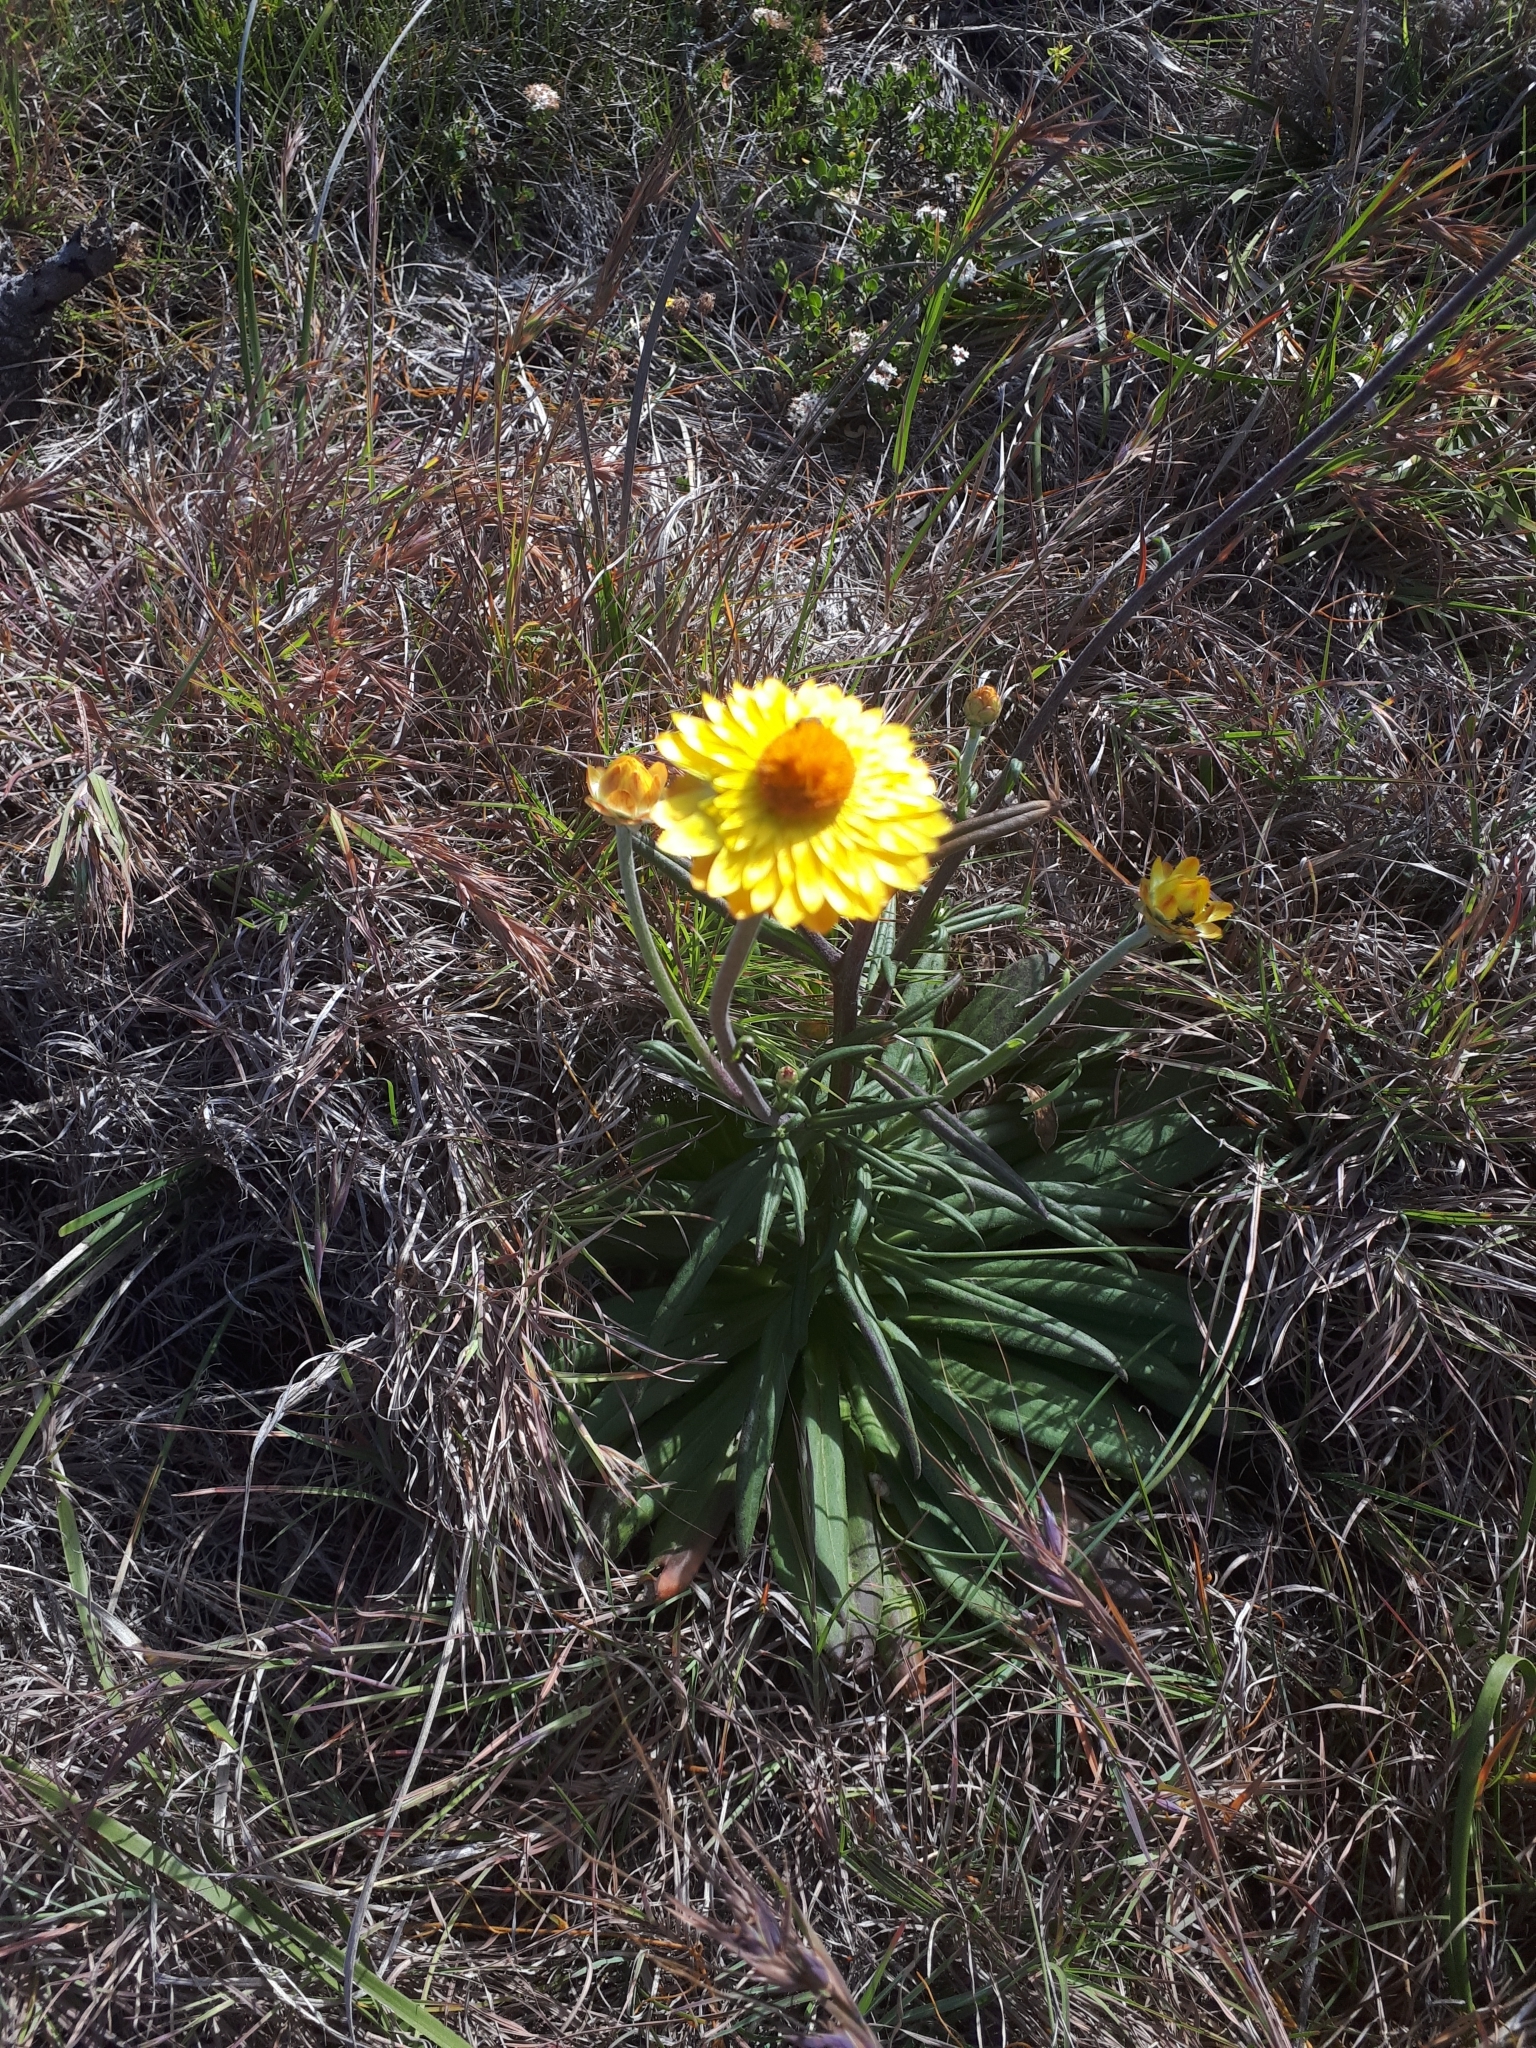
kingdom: Plantae
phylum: Tracheophyta
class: Magnoliopsida
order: Asterales
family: Asteraceae
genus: Xerochrysum
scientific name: Xerochrysum bracteatum
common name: Bracted strawflower
